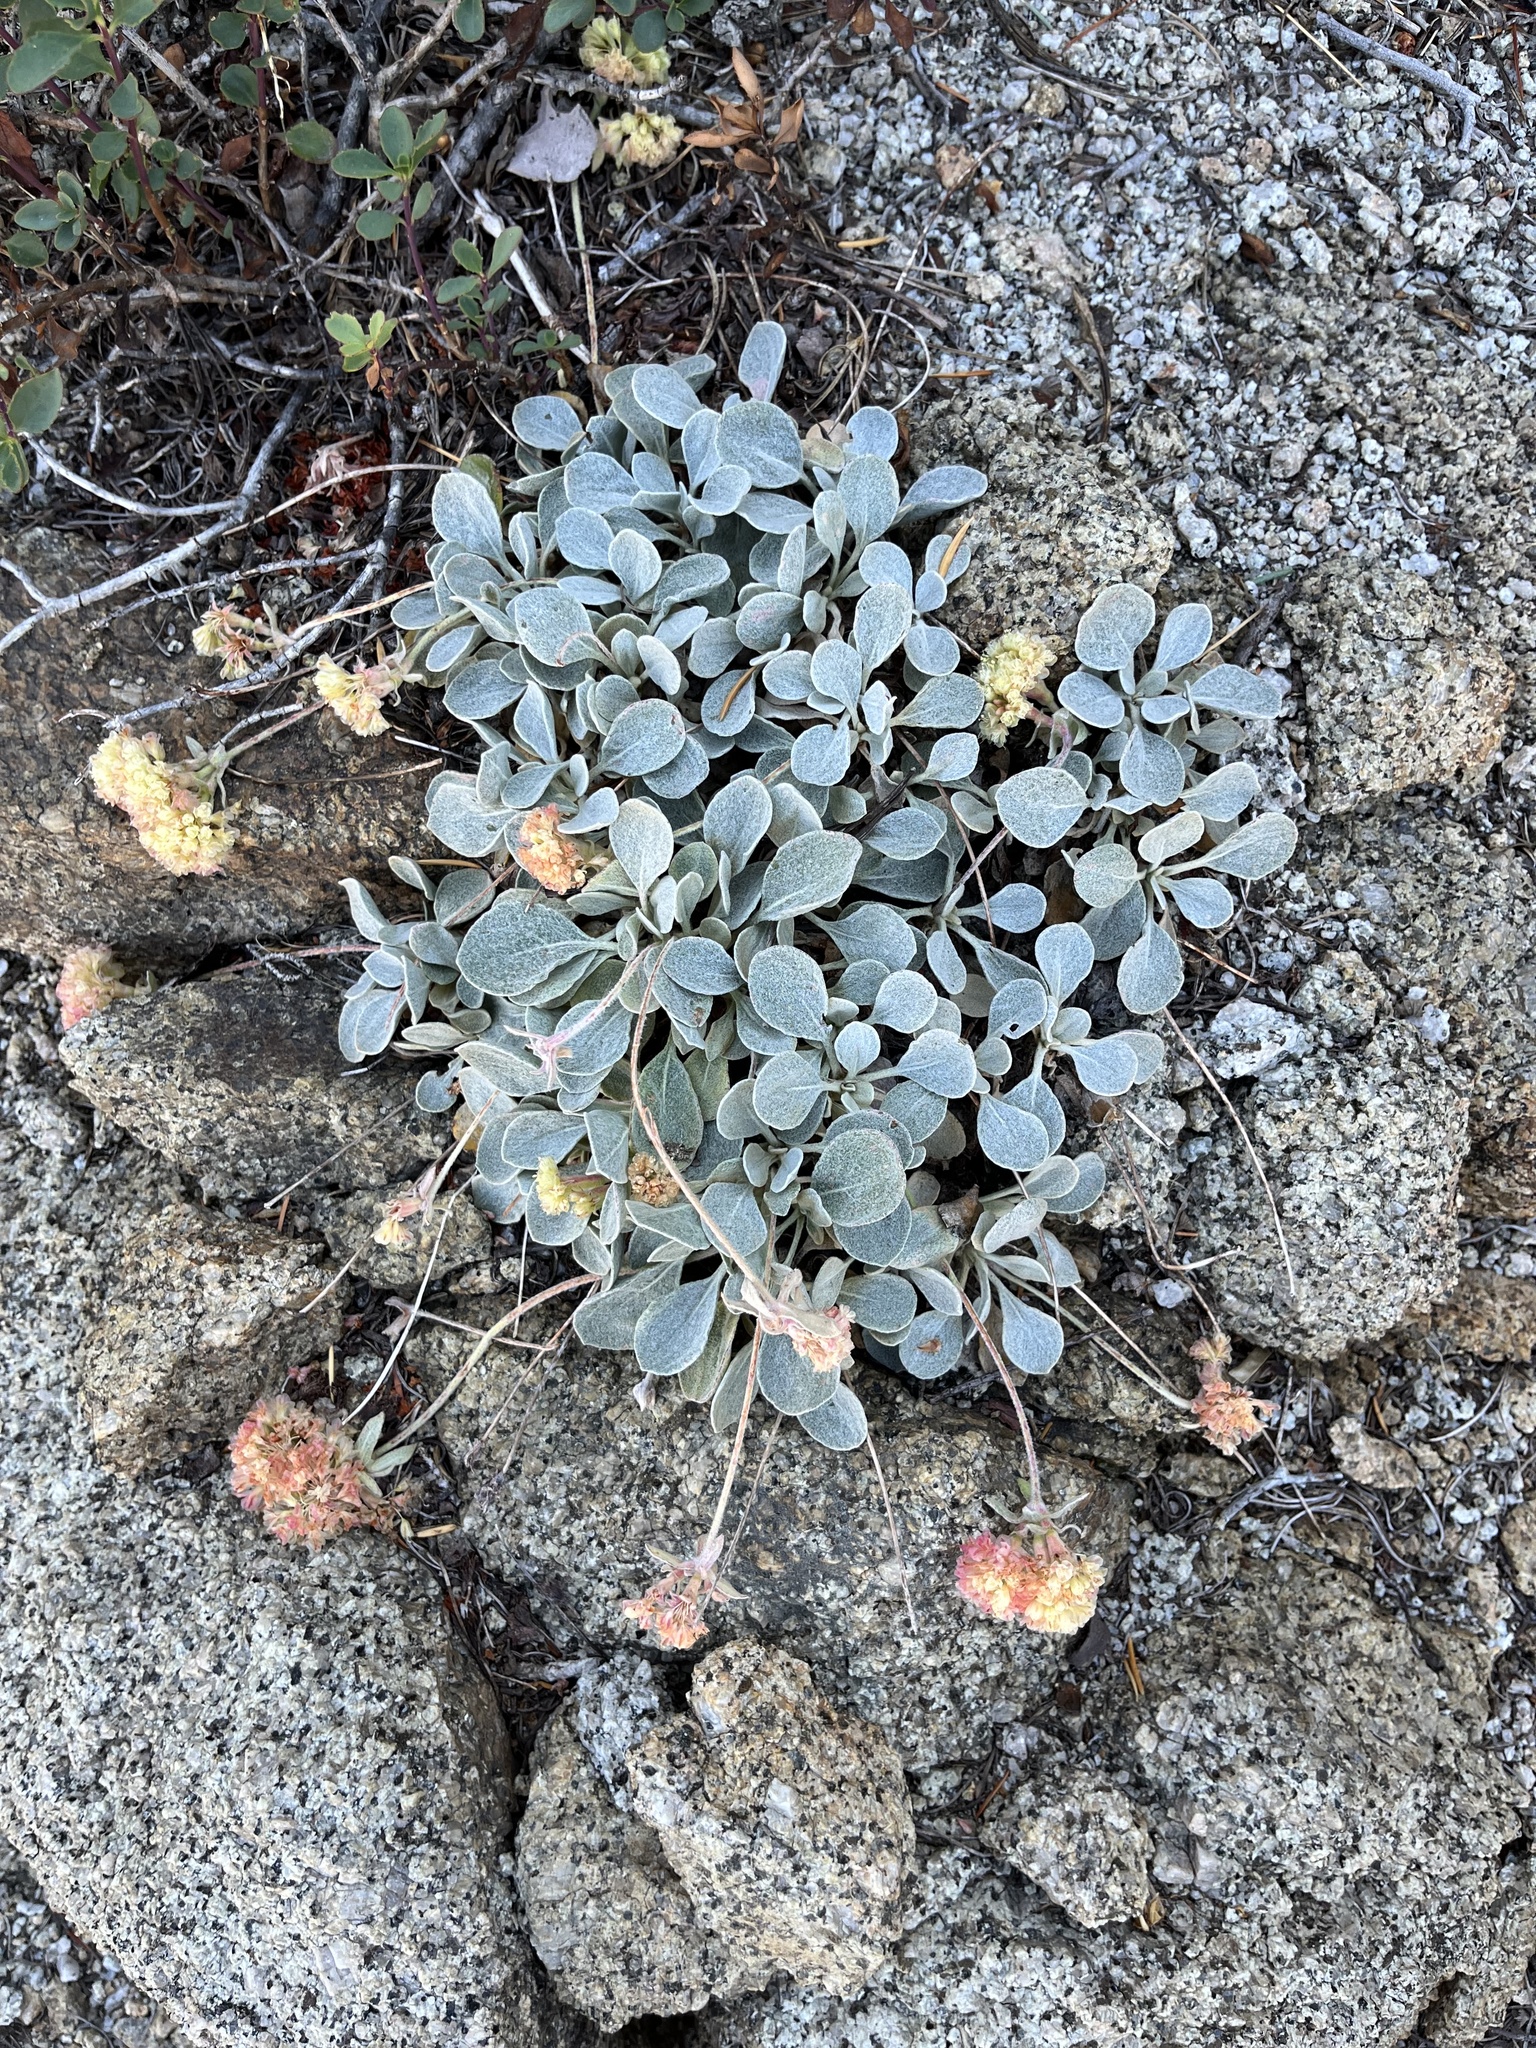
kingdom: Plantae
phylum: Tracheophyta
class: Magnoliopsida
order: Caryophyllales
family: Polygonaceae
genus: Eriogonum
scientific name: Eriogonum lobbii
